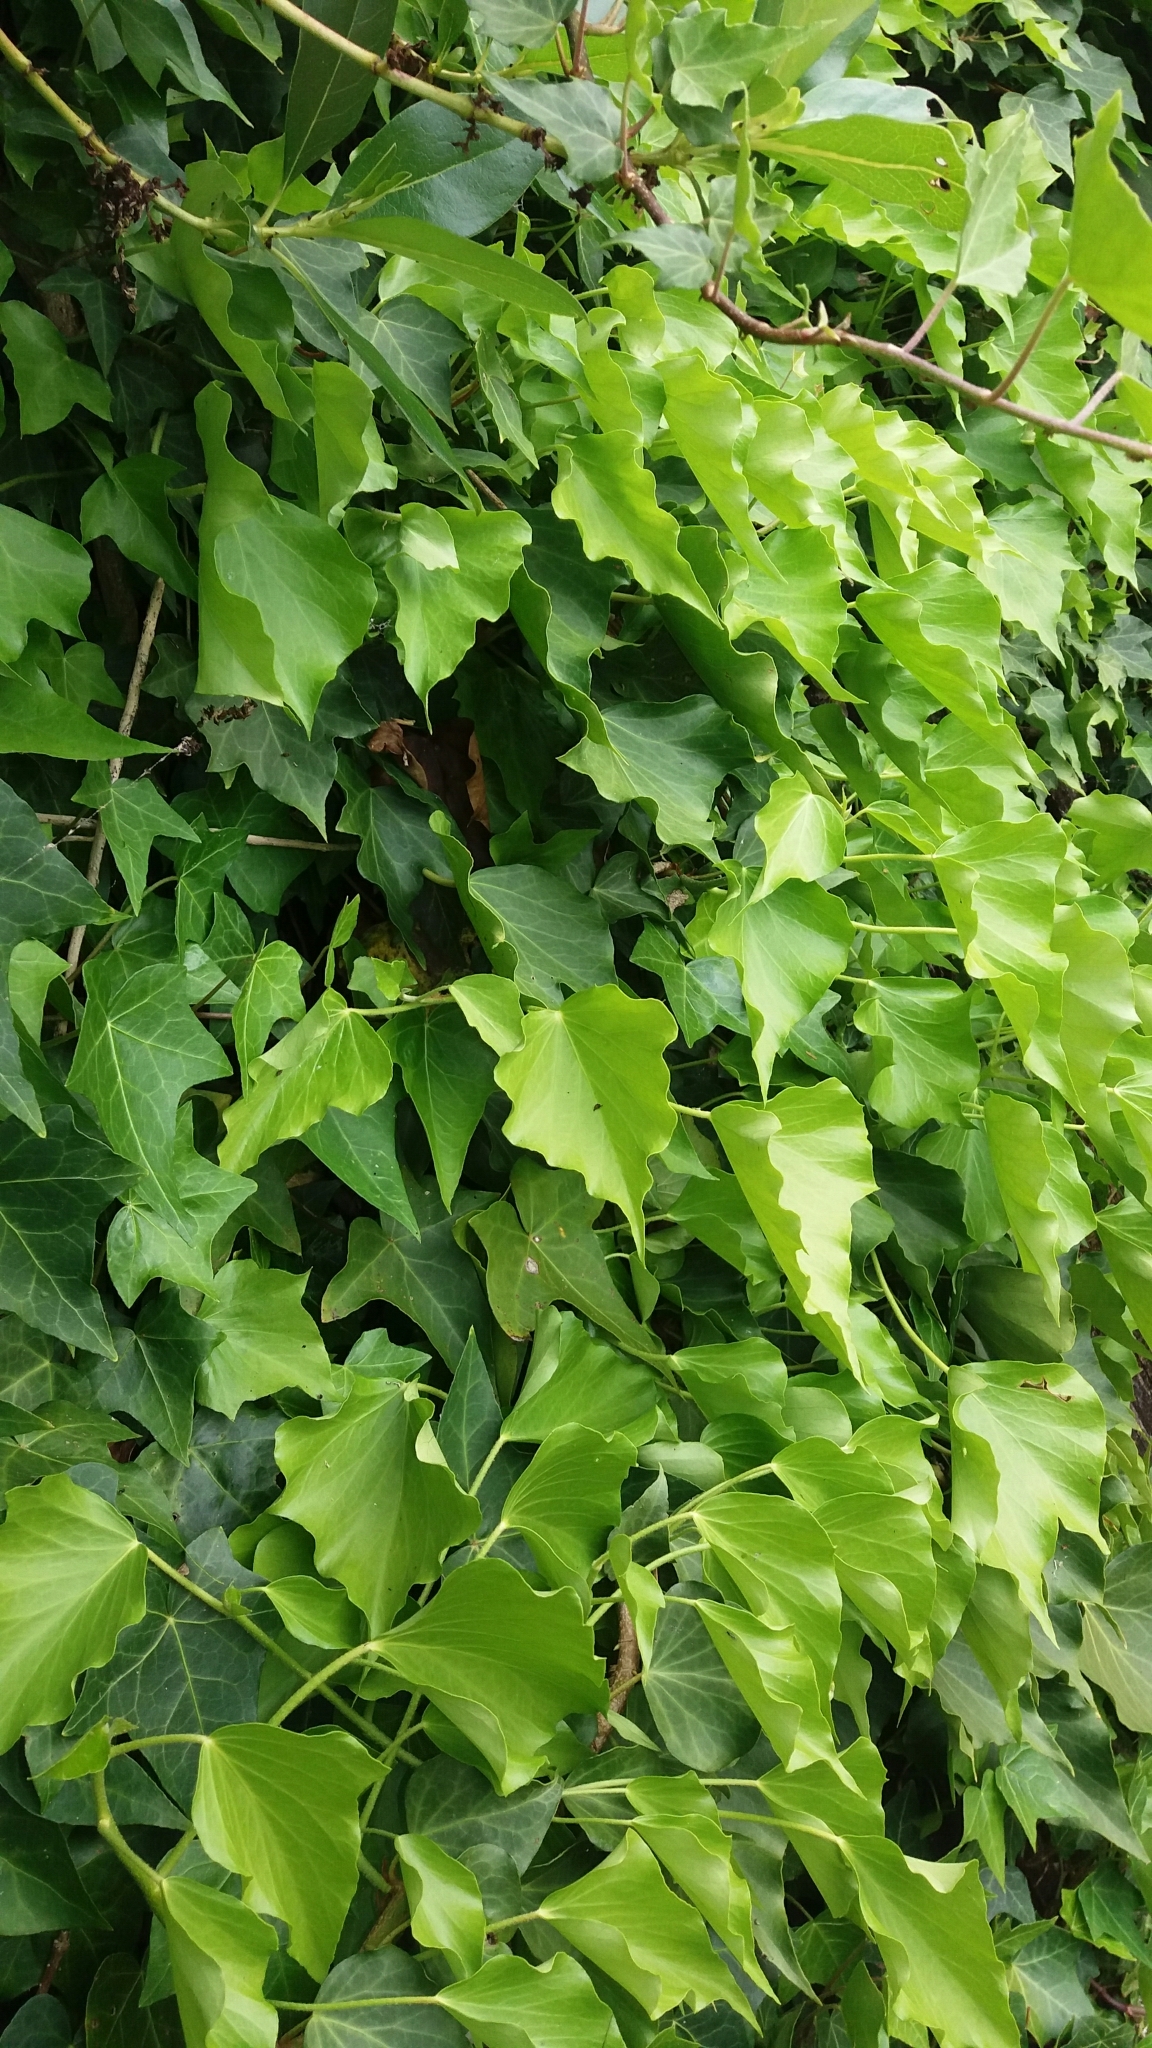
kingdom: Plantae
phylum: Tracheophyta
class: Magnoliopsida
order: Apiales
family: Araliaceae
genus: Hedera
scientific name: Hedera helix
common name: Ivy
